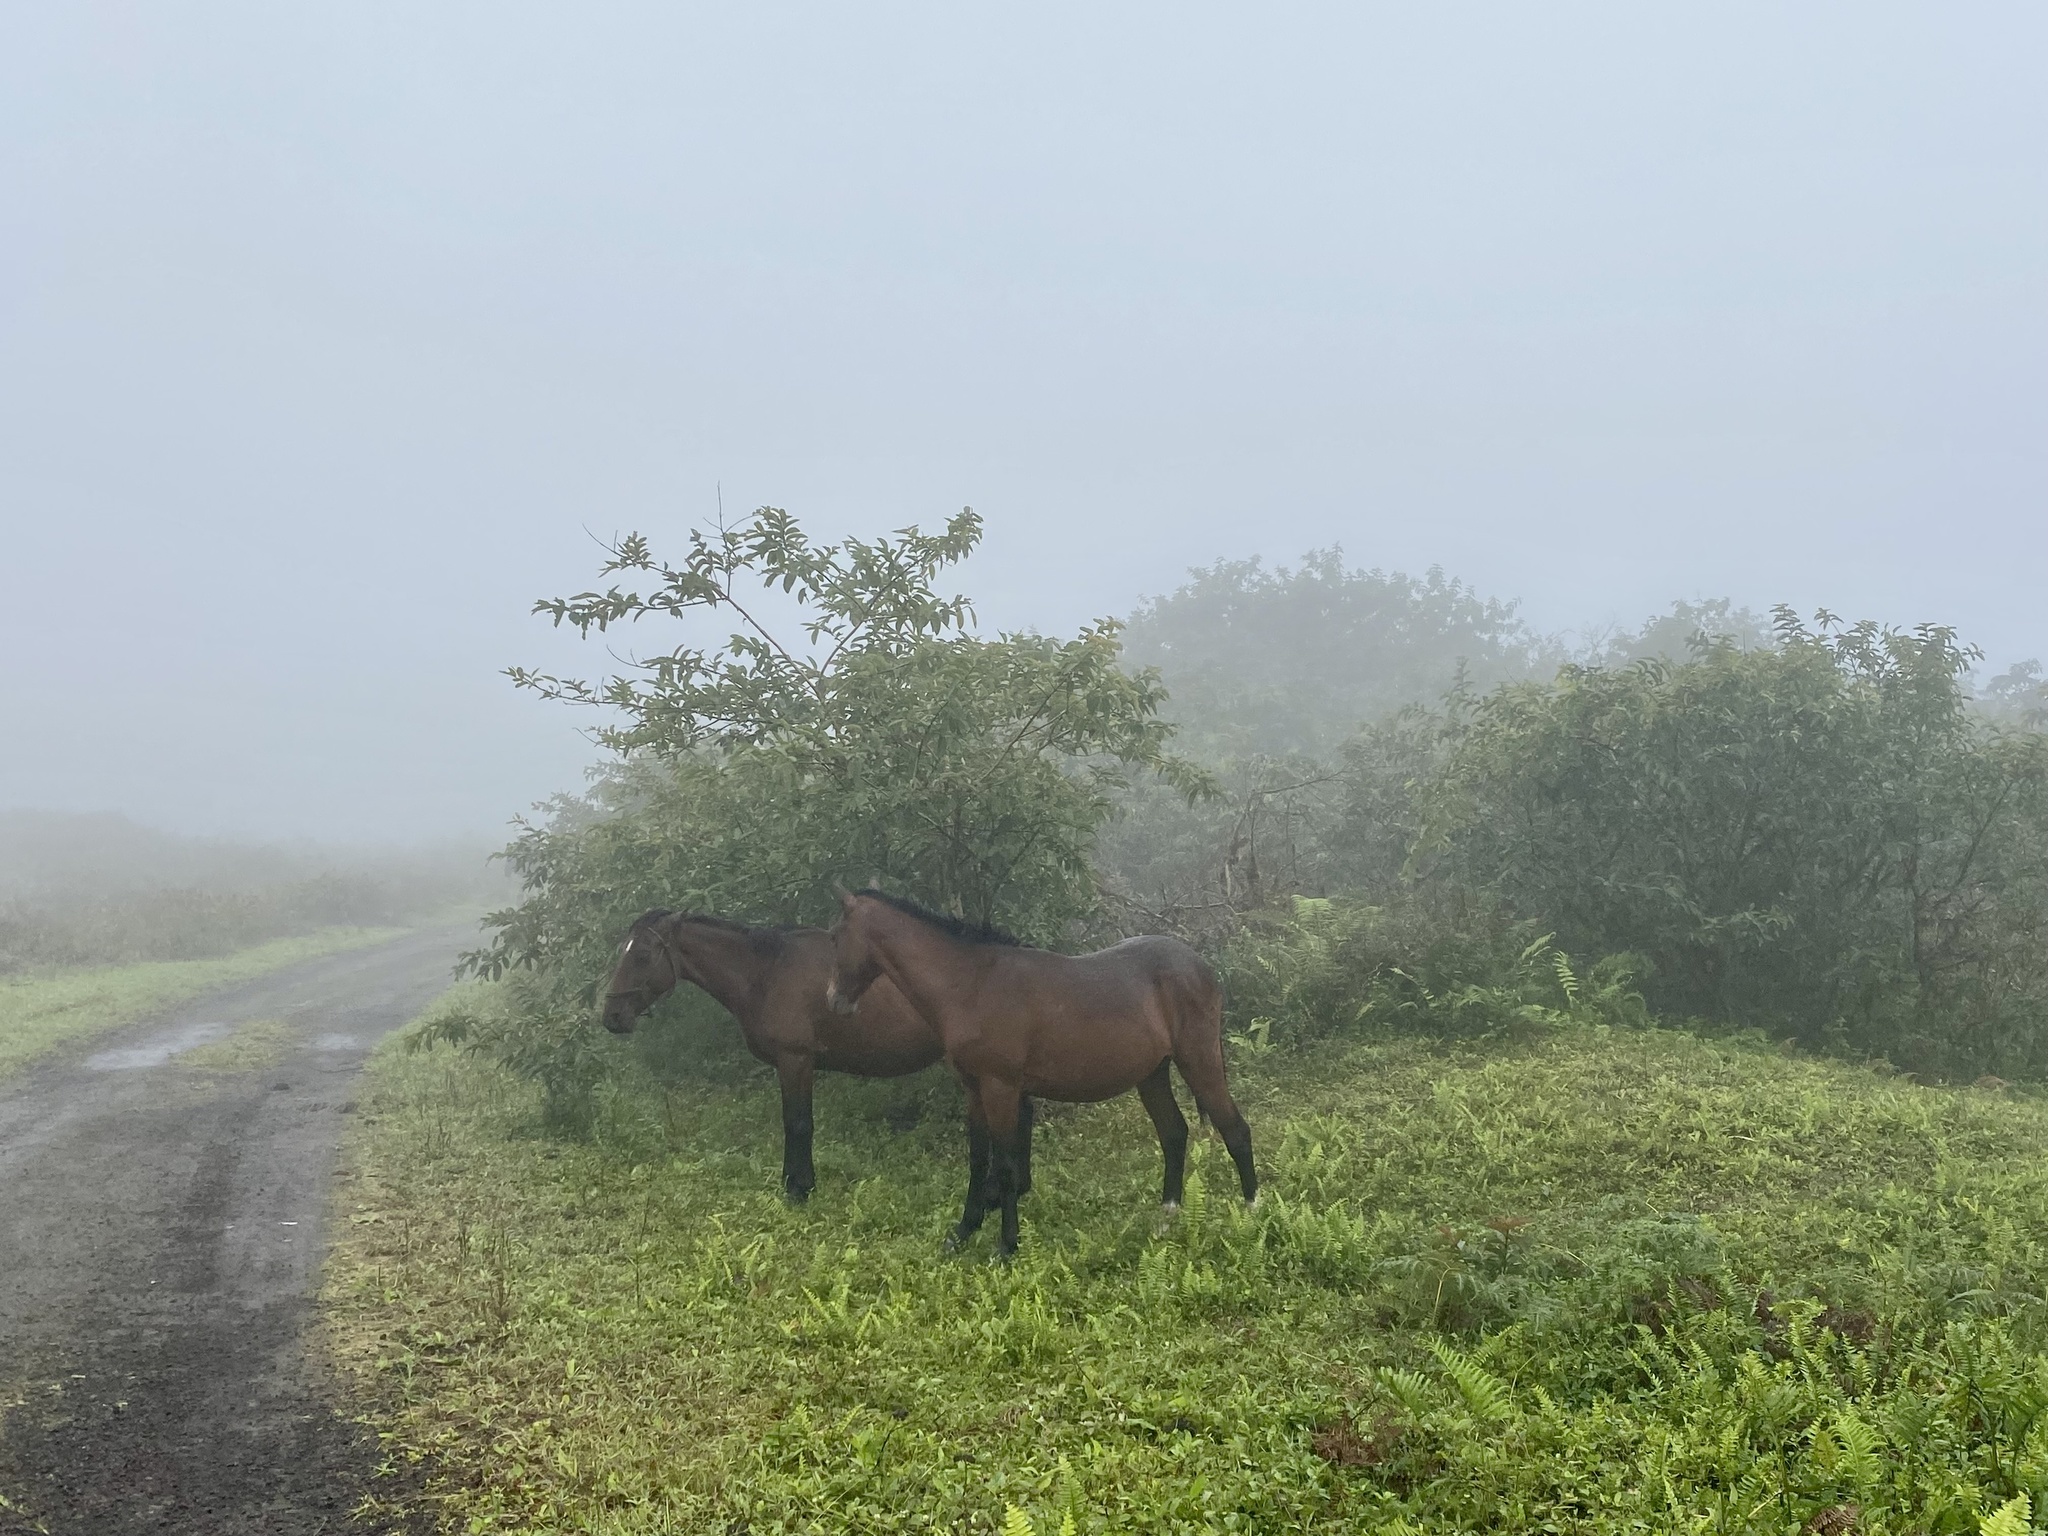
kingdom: Animalia
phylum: Chordata
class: Mammalia
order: Perissodactyla
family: Equidae
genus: Equus
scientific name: Equus caballus
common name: Horse
